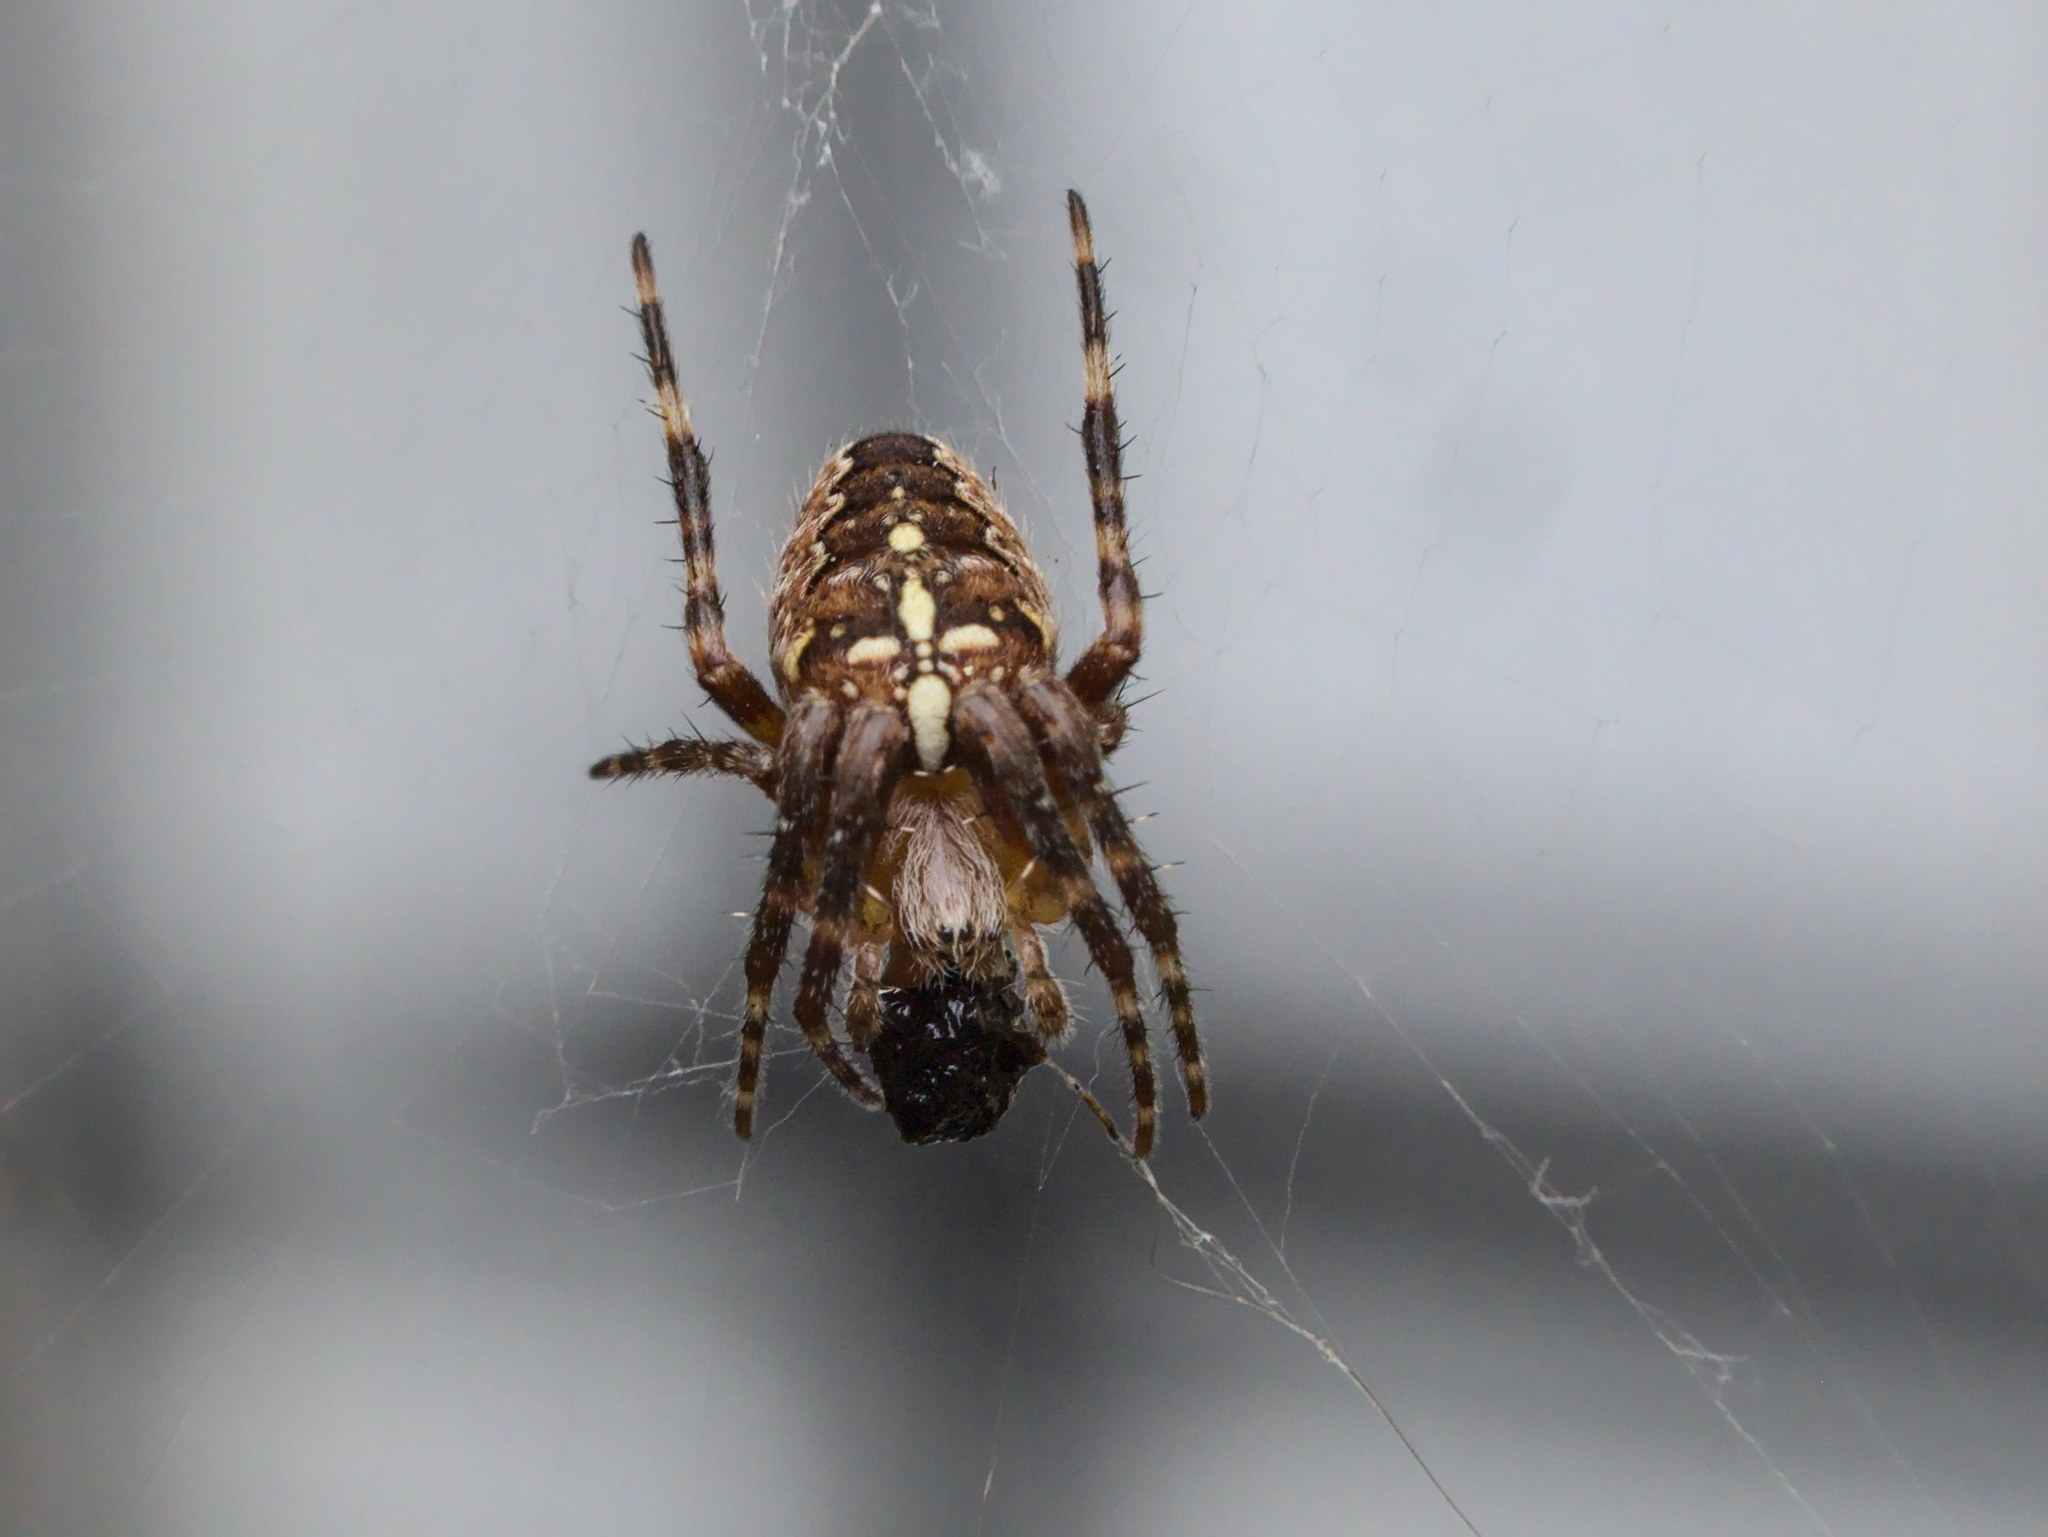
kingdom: Animalia
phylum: Arthropoda
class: Arachnida
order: Araneae
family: Araneidae
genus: Araneus
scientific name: Araneus diadematus
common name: Cross orbweaver
